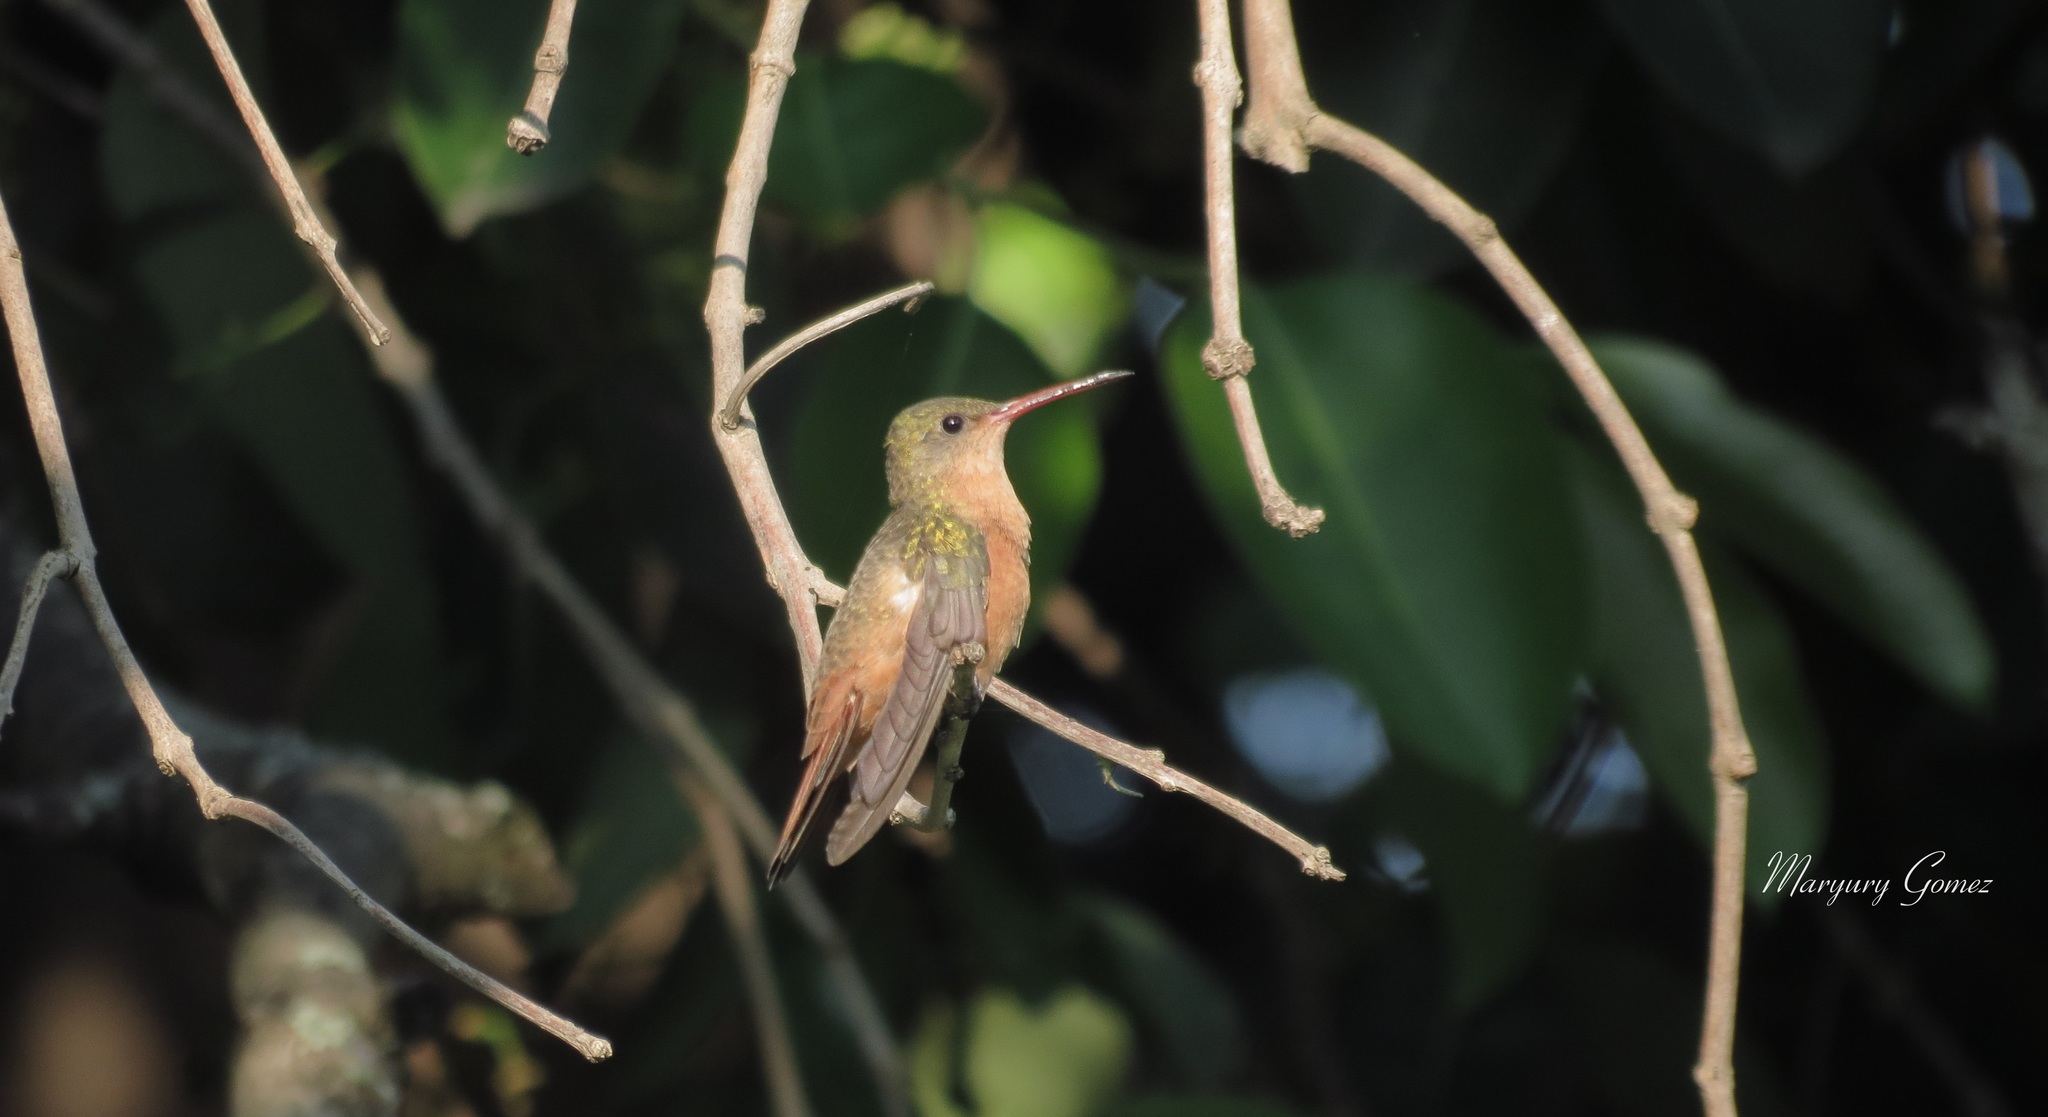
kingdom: Animalia
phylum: Chordata
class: Aves
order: Apodiformes
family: Trochilidae
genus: Amazilia
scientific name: Amazilia rutila
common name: Cinnamon hummingbird
